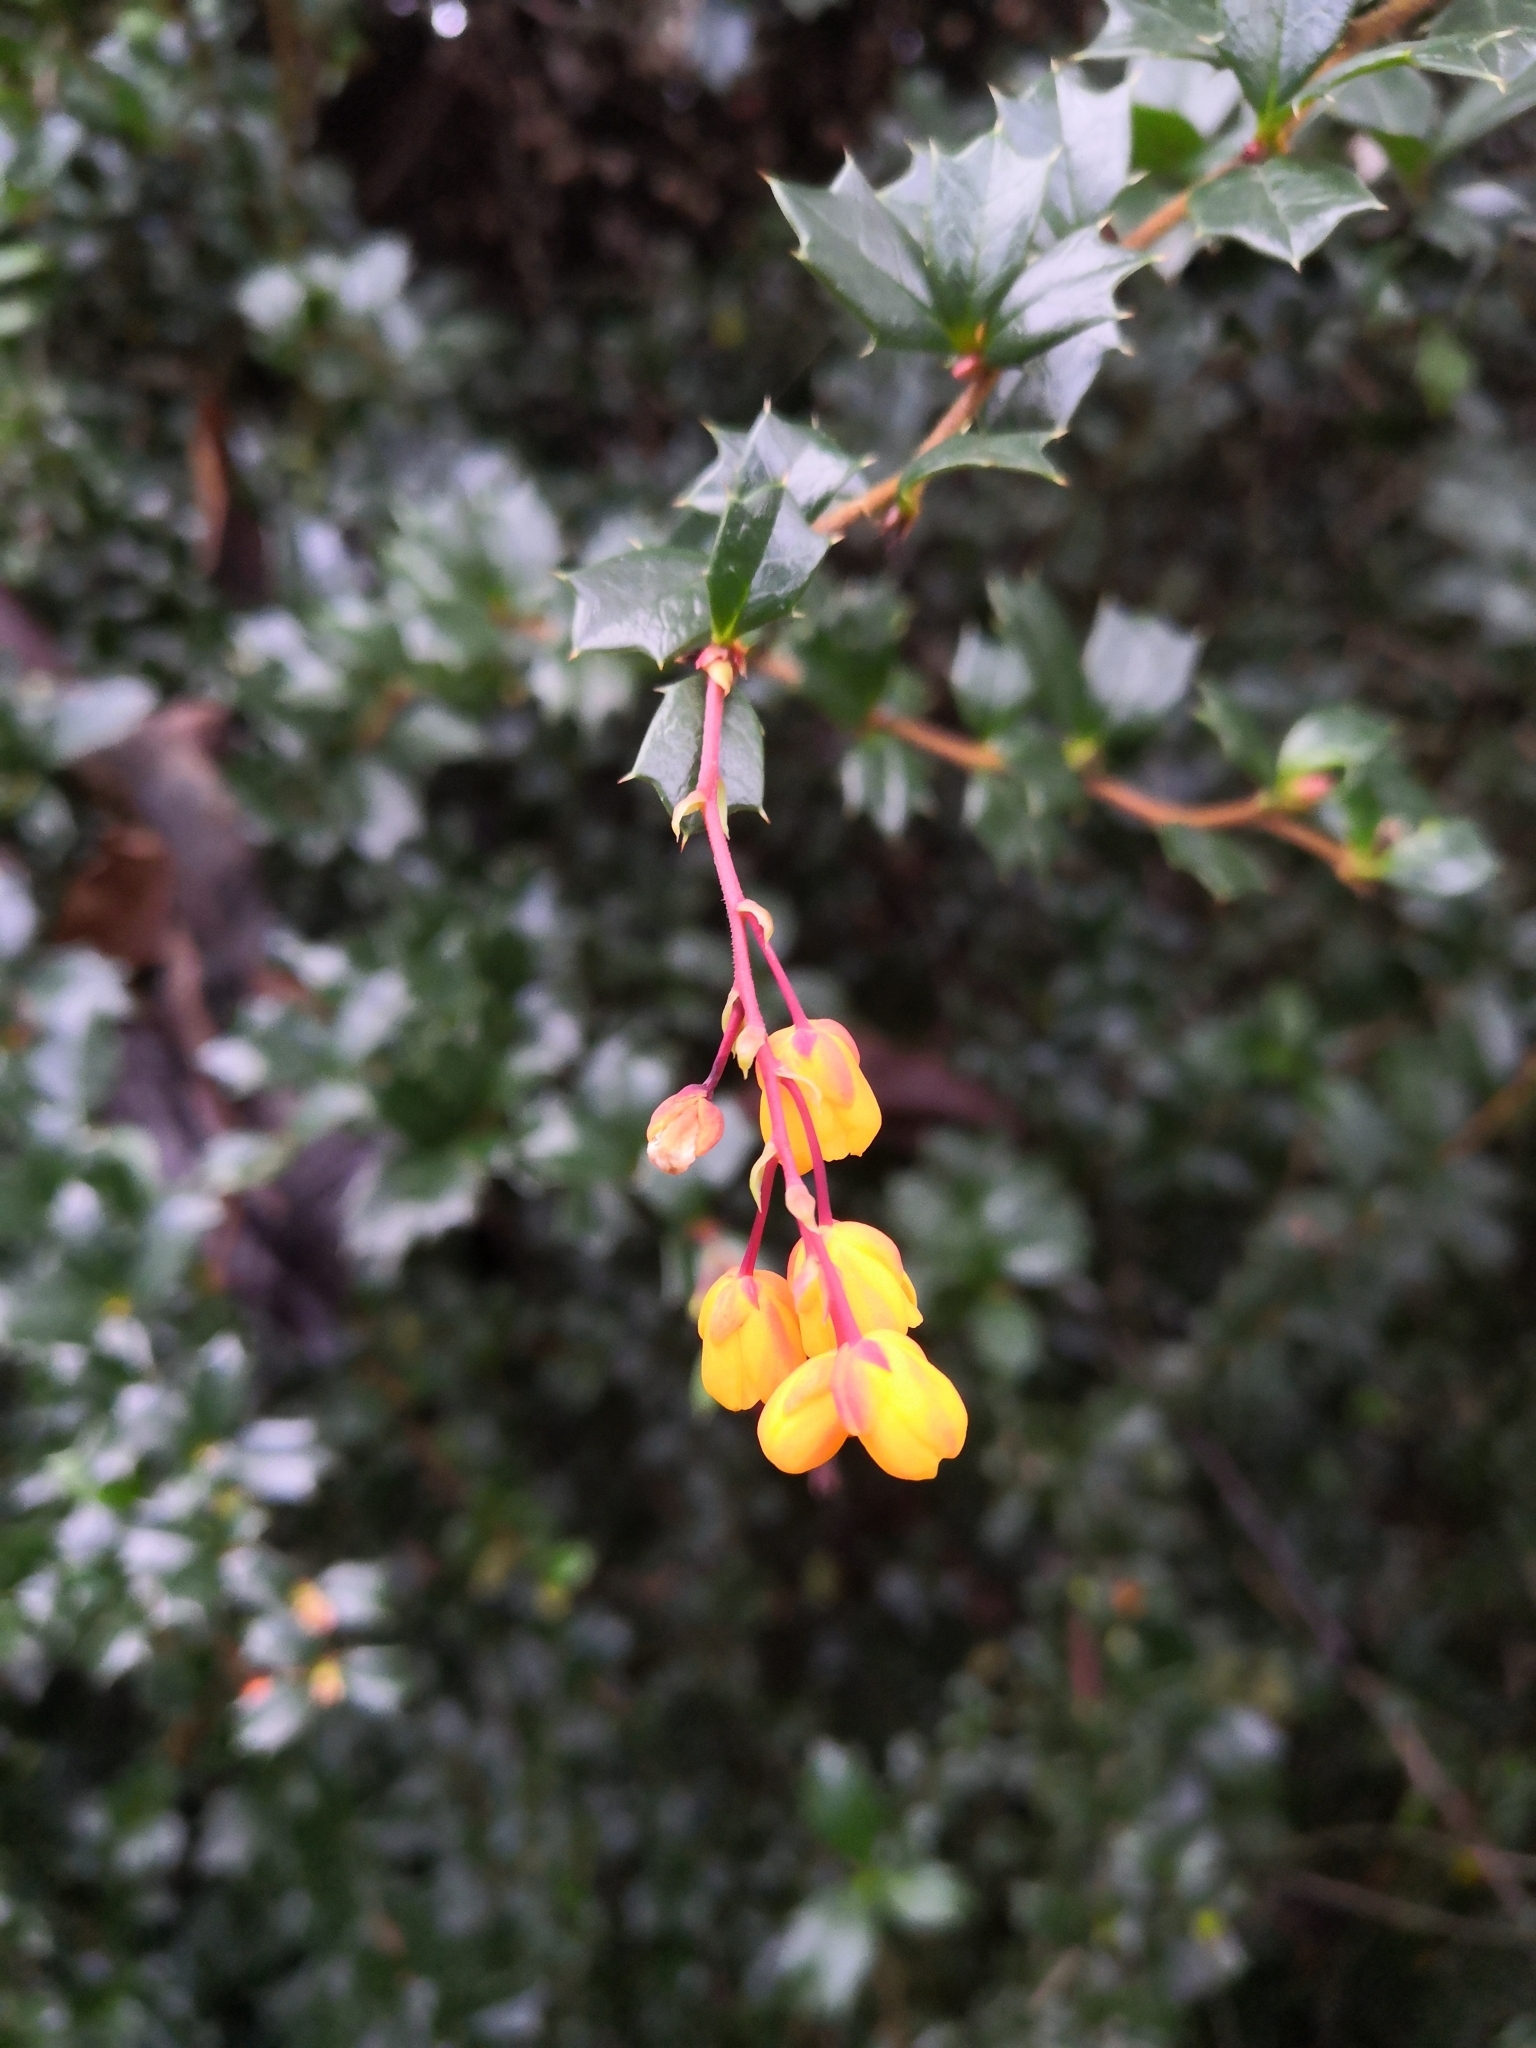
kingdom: Plantae
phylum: Tracheophyta
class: Magnoliopsida
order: Ranunculales
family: Berberidaceae
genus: Berberis
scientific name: Berberis darwinii
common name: Darwin's barberry
